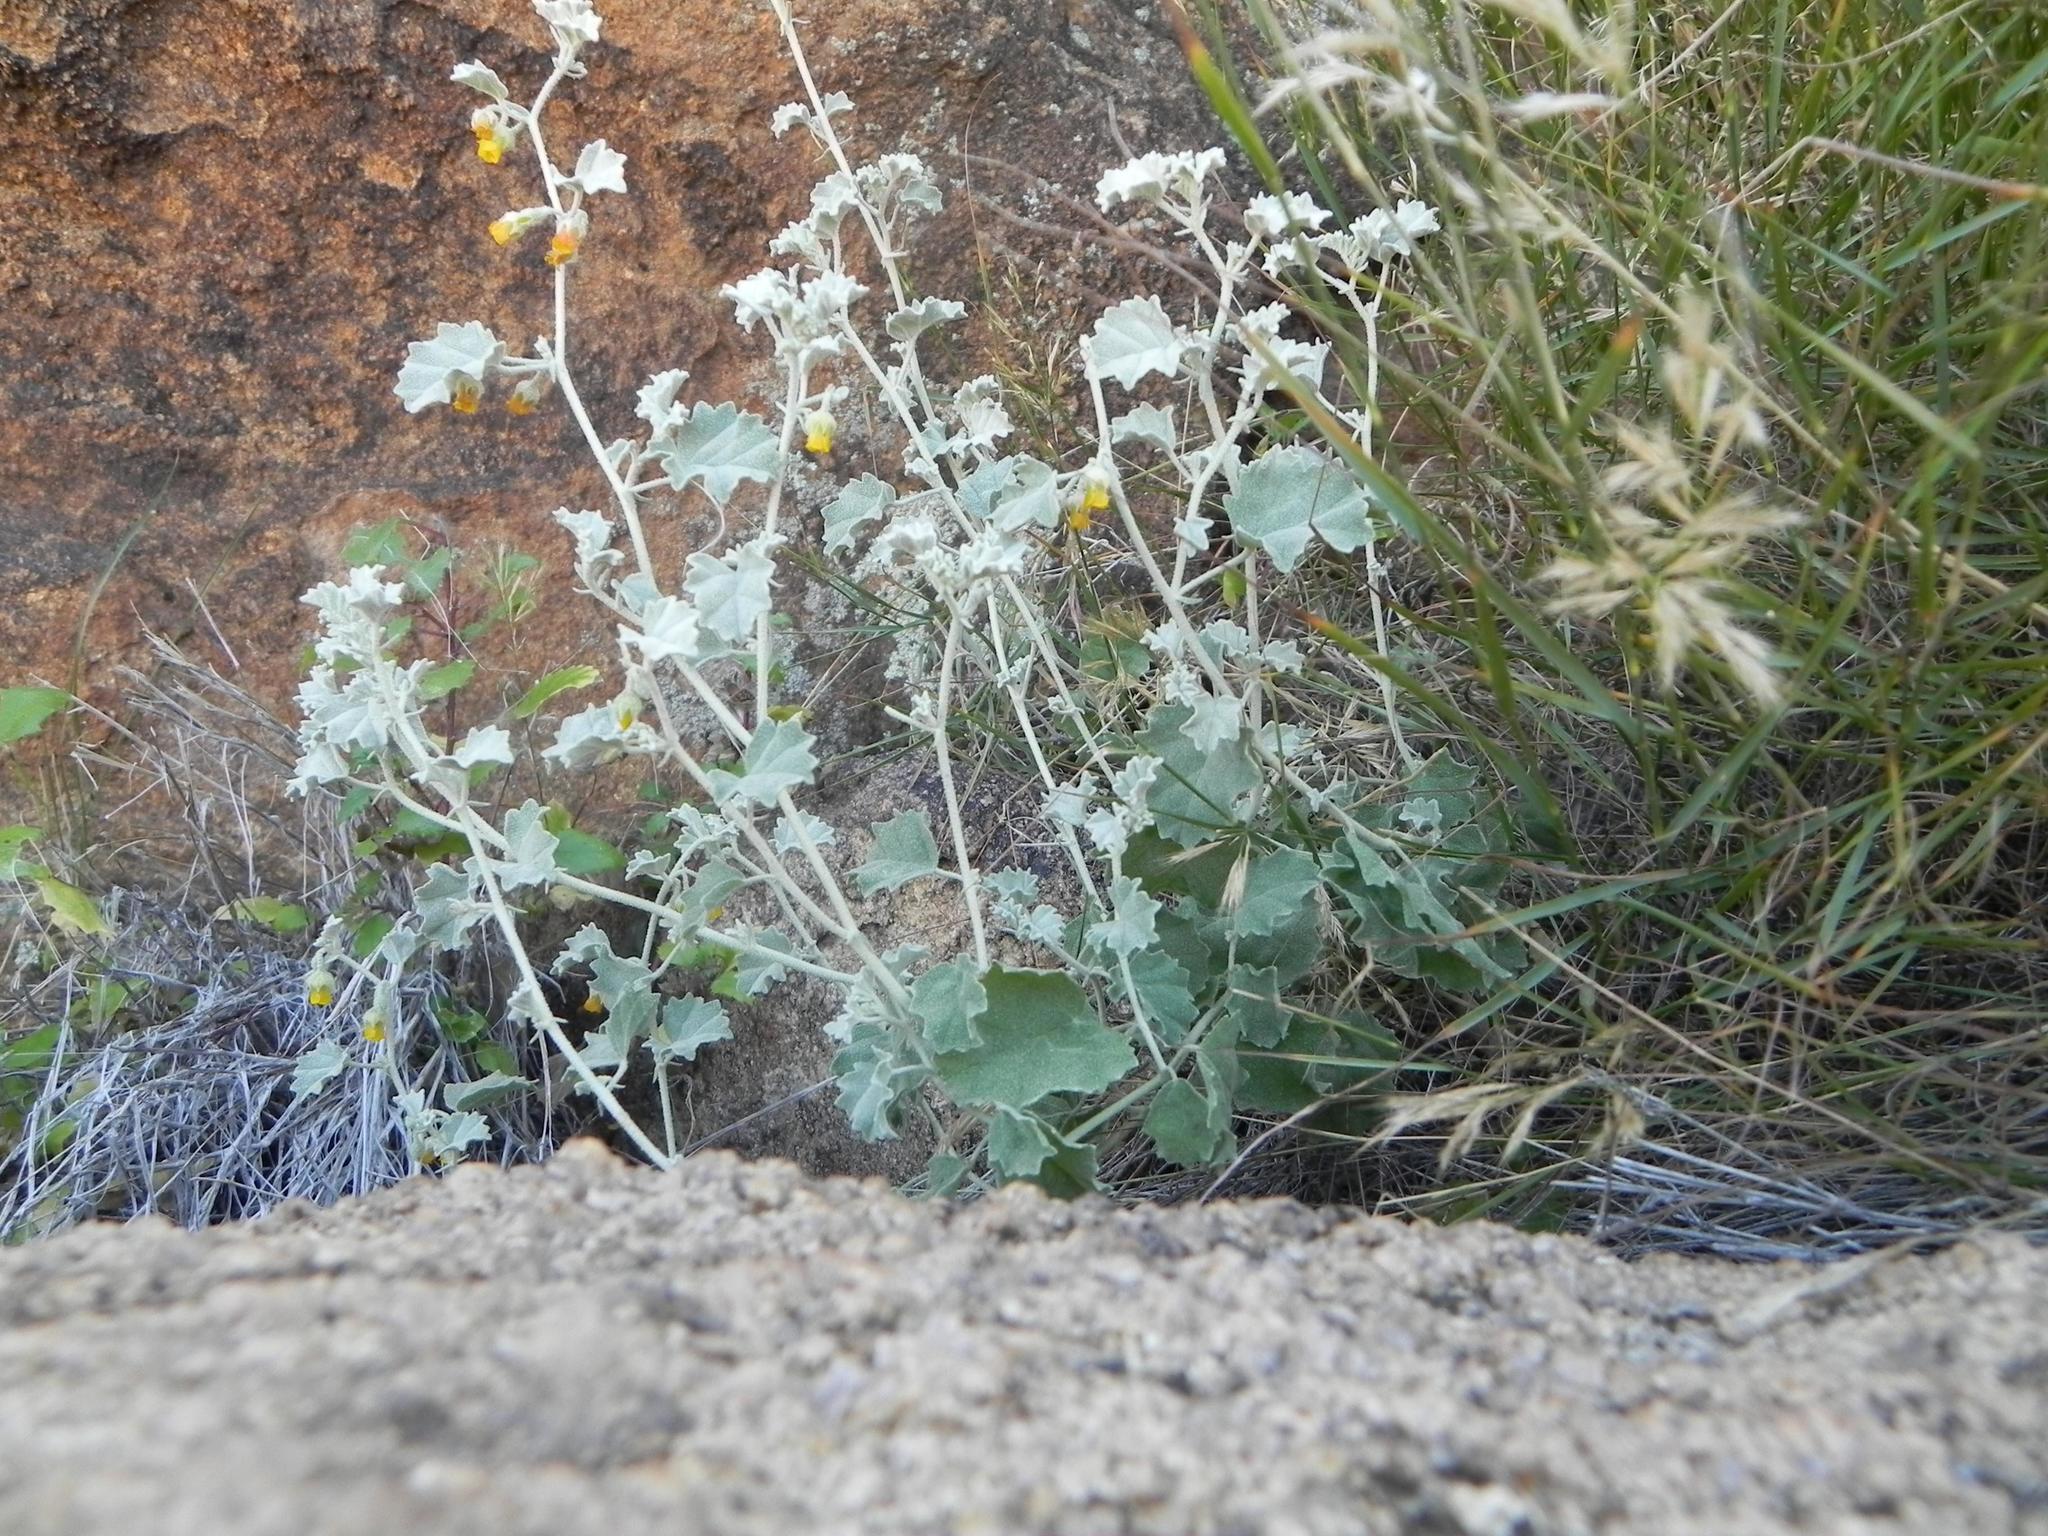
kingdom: Plantae
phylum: Tracheophyta
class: Magnoliopsida
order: Malvales
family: Malvaceae
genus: Hermannia
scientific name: Hermannia minutiflora
